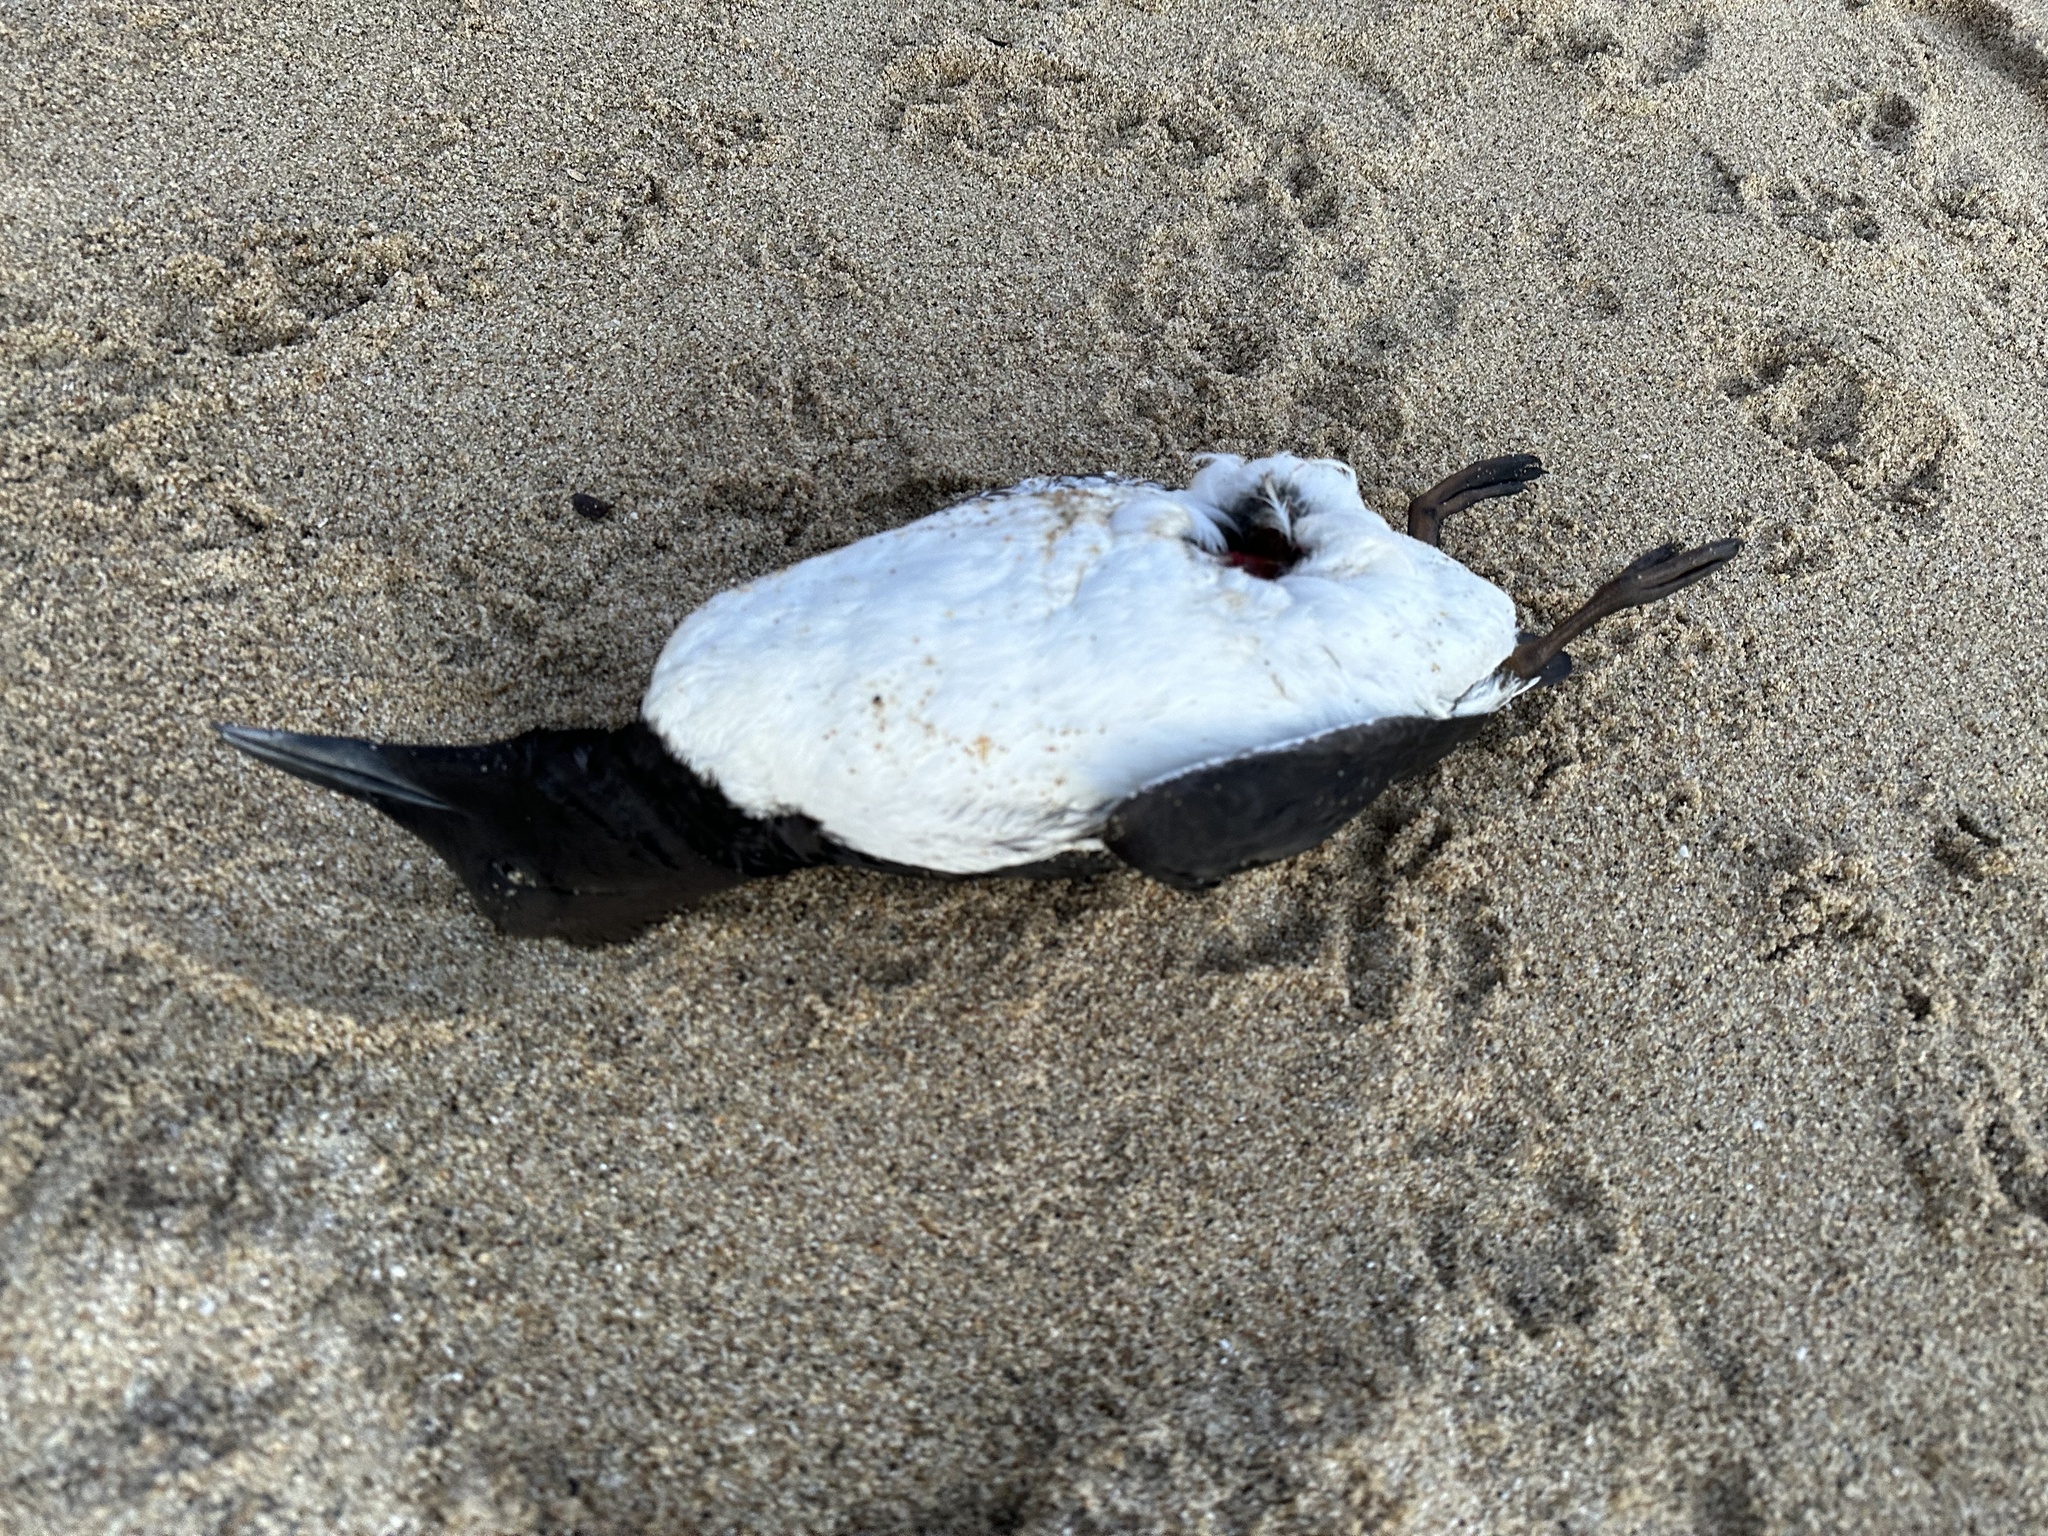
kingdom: Animalia
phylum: Chordata
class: Aves
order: Charadriiformes
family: Alcidae
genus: Uria
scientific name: Uria aalge
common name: Common murre
